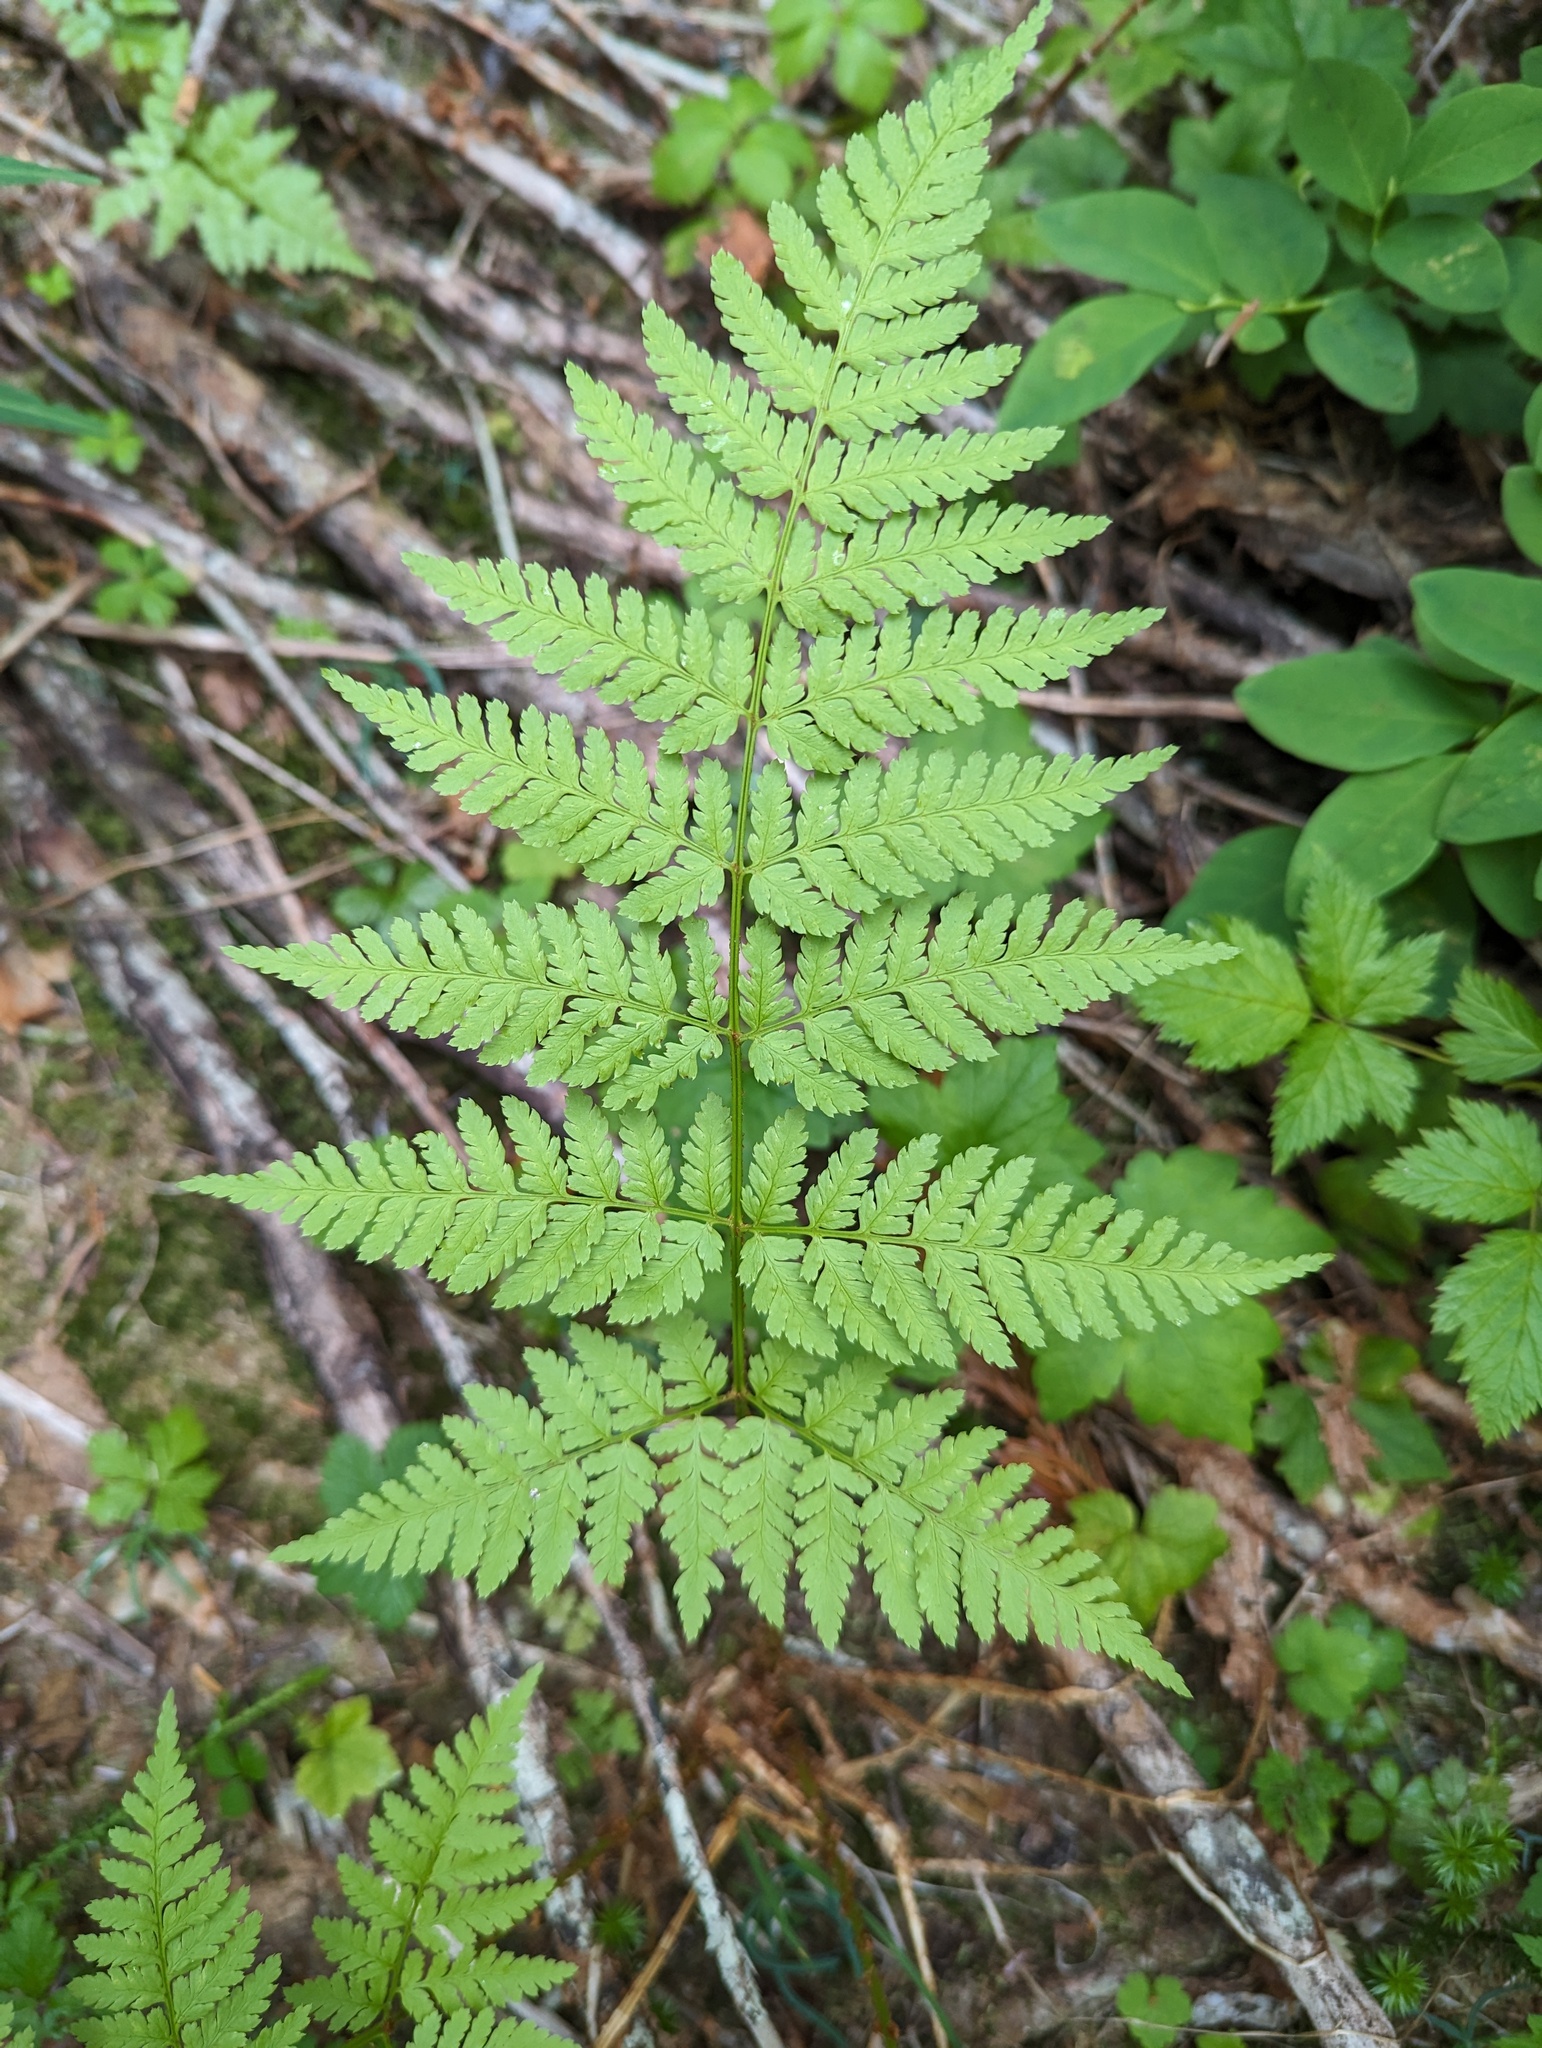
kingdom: Plantae
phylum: Tracheophyta
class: Polypodiopsida
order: Polypodiales
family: Dryopteridaceae
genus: Dryopteris
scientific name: Dryopteris expansa
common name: Northern buckler fern
